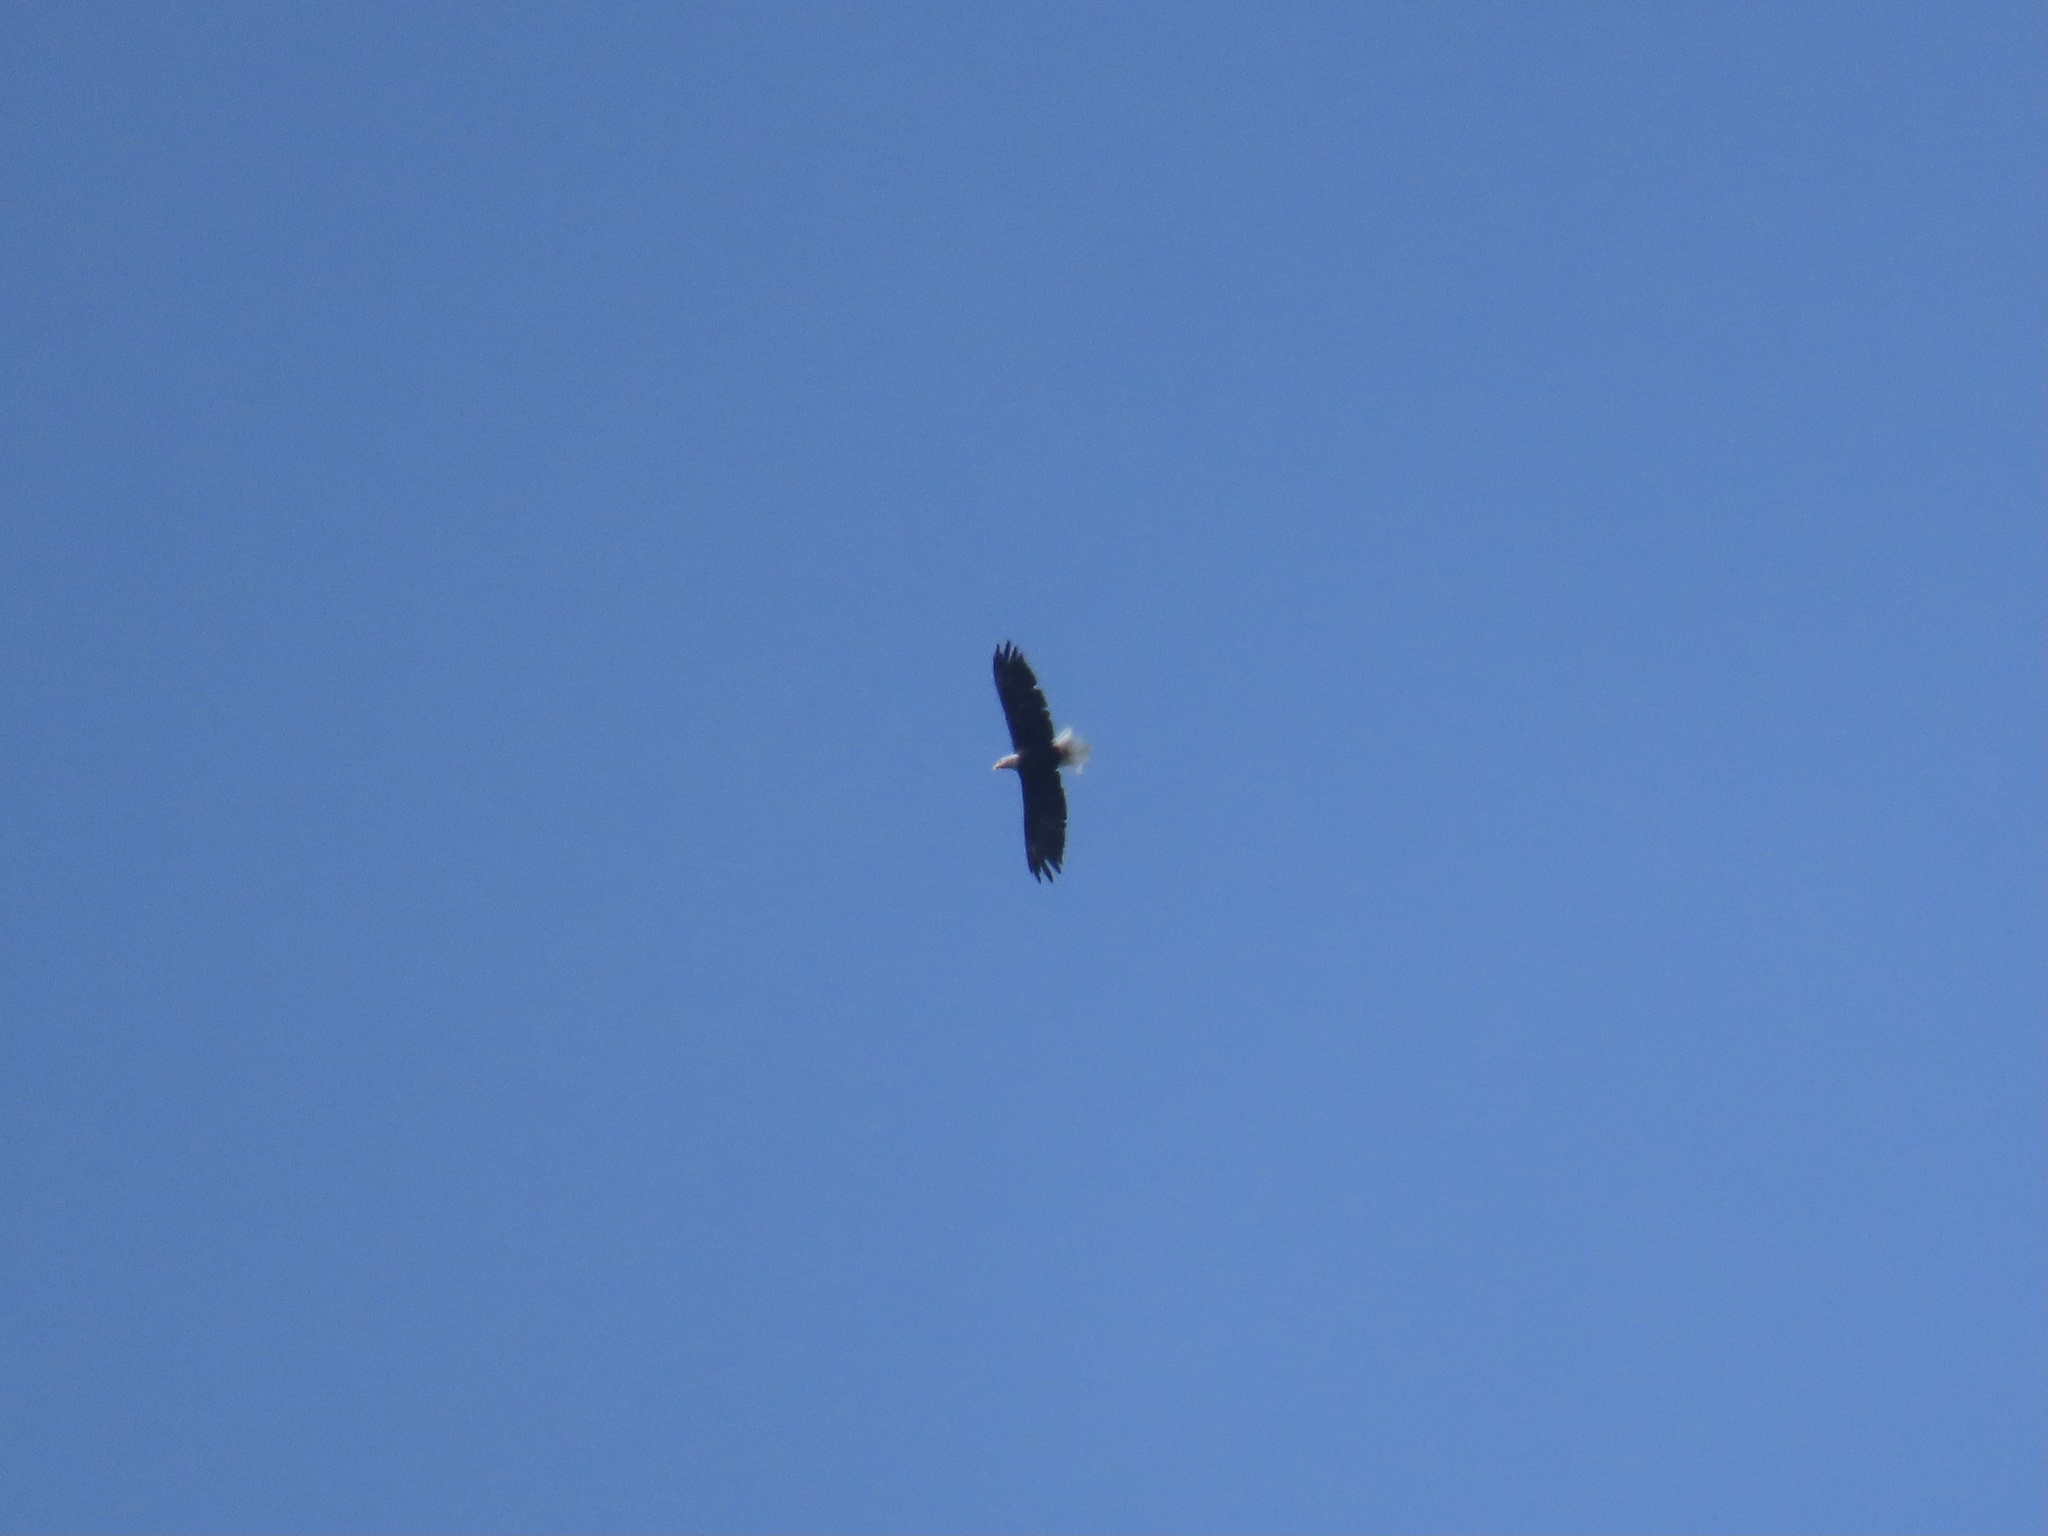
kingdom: Animalia
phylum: Chordata
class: Aves
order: Accipitriformes
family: Accipitridae
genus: Haliaeetus
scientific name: Haliaeetus leucocephalus
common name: Bald eagle
